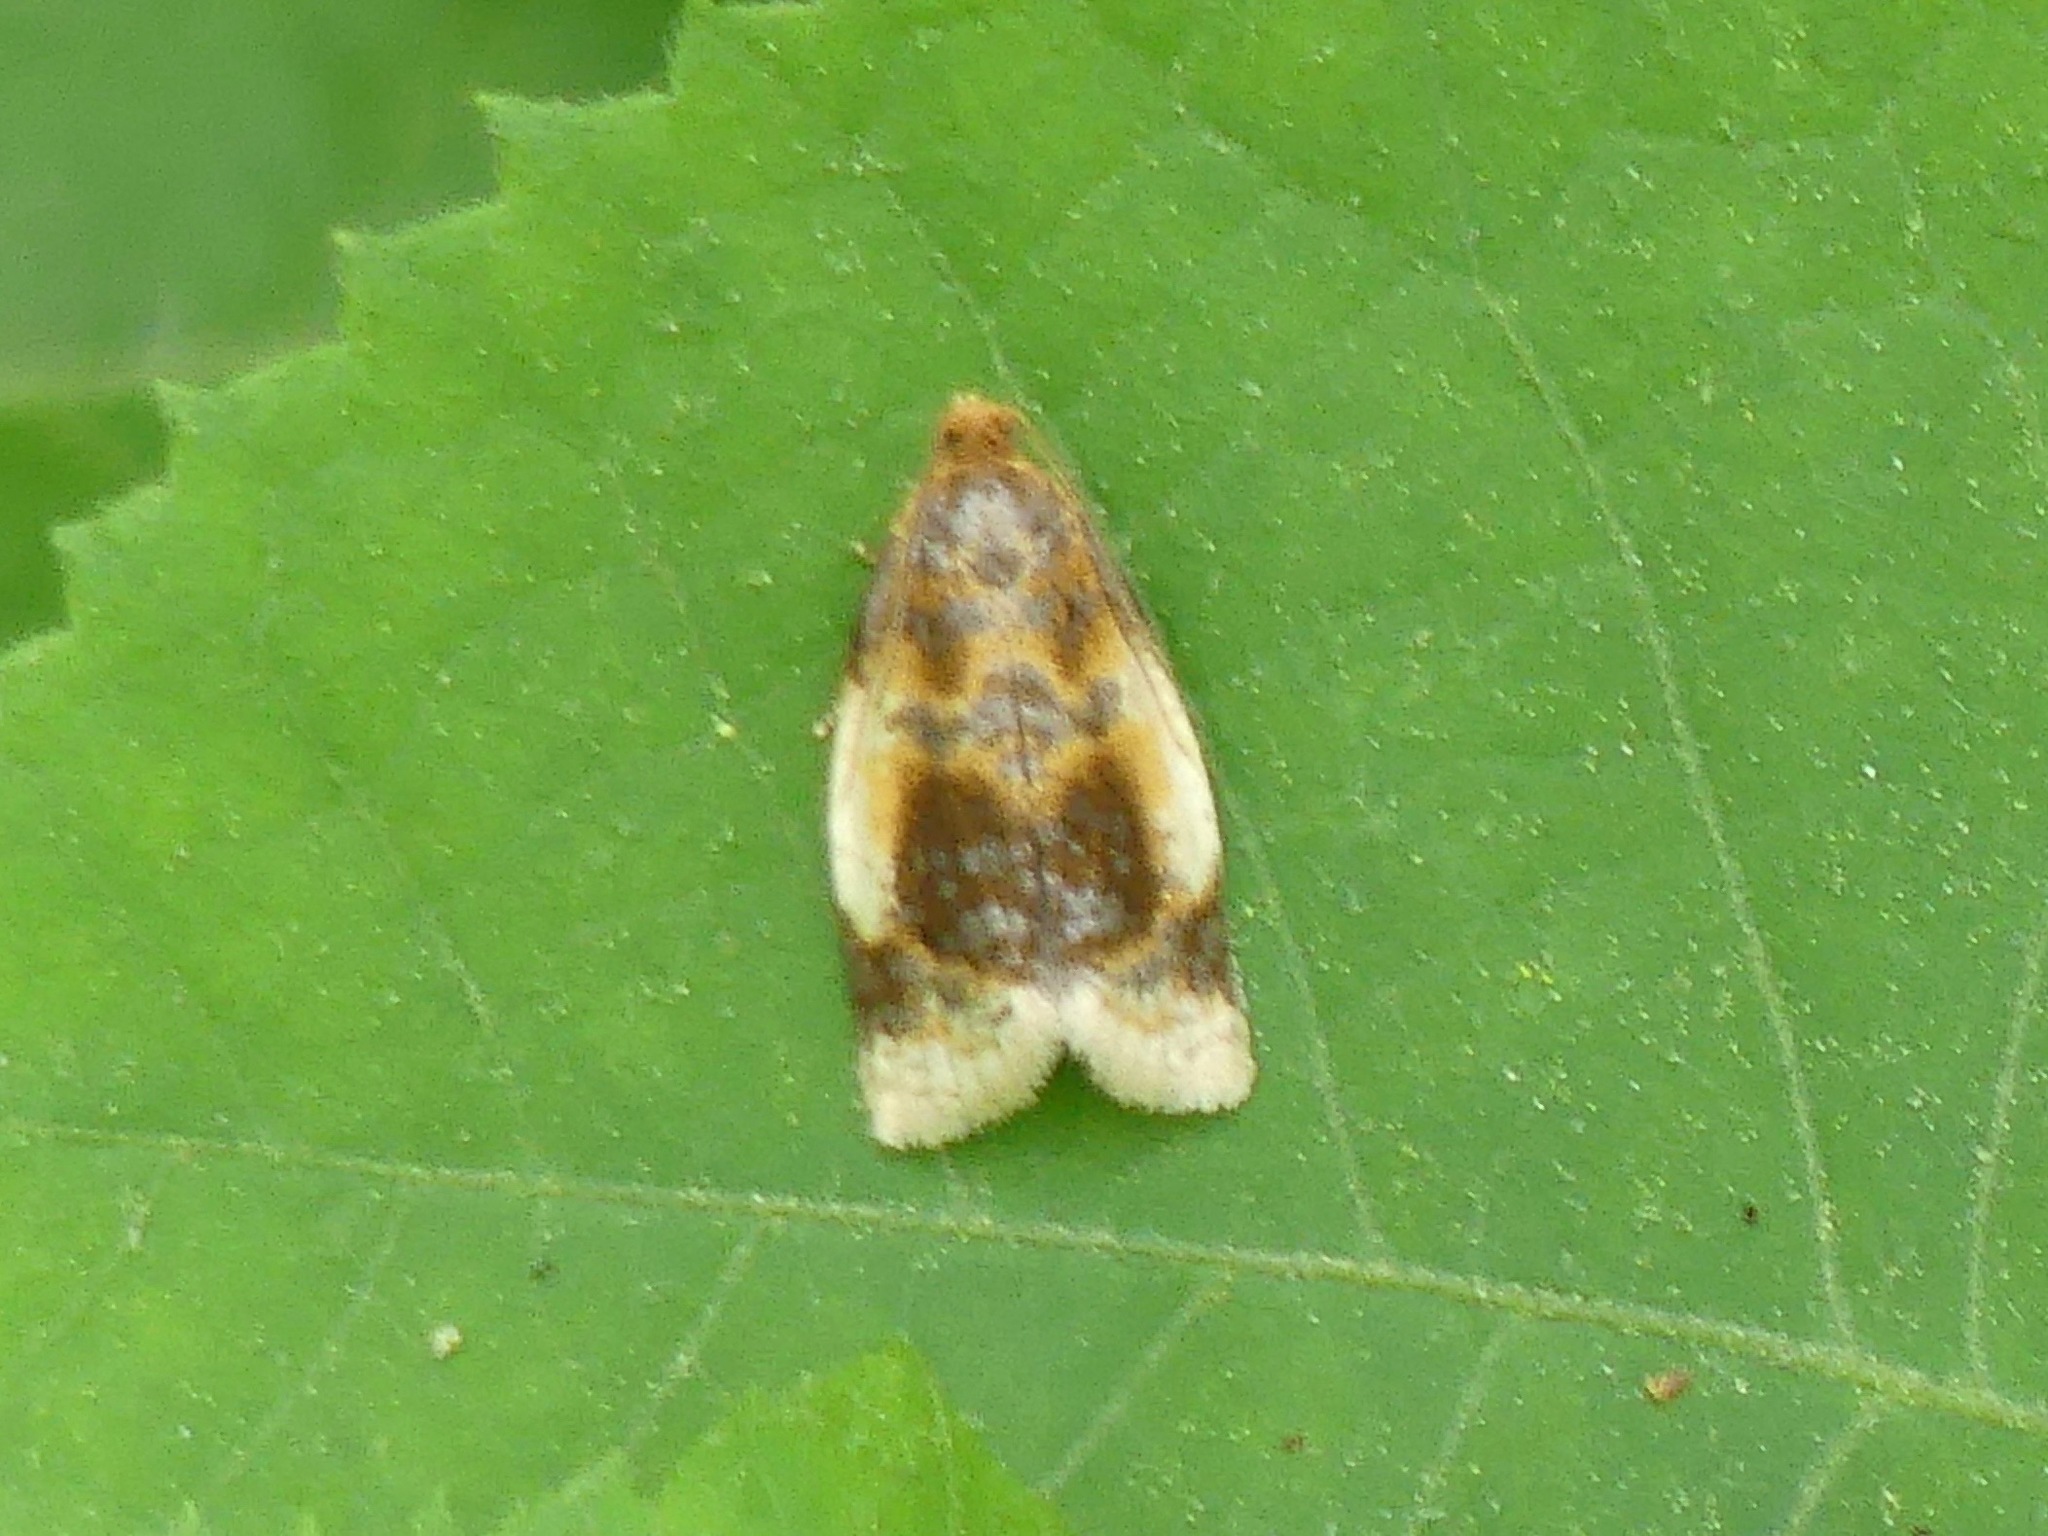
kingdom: Animalia
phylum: Arthropoda
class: Insecta
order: Lepidoptera
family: Tortricidae
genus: Clepsis
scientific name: Clepsis melaleucanus
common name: American apple tortrix
